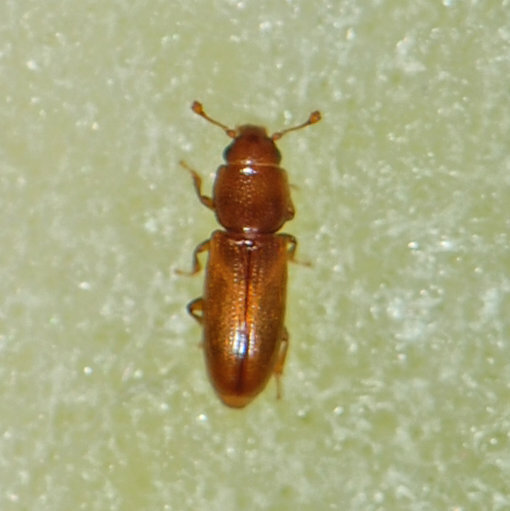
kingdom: Animalia
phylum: Arthropoda
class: Insecta
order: Coleoptera
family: Monotomidae
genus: Rhizophagus
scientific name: Rhizophagus remotus
